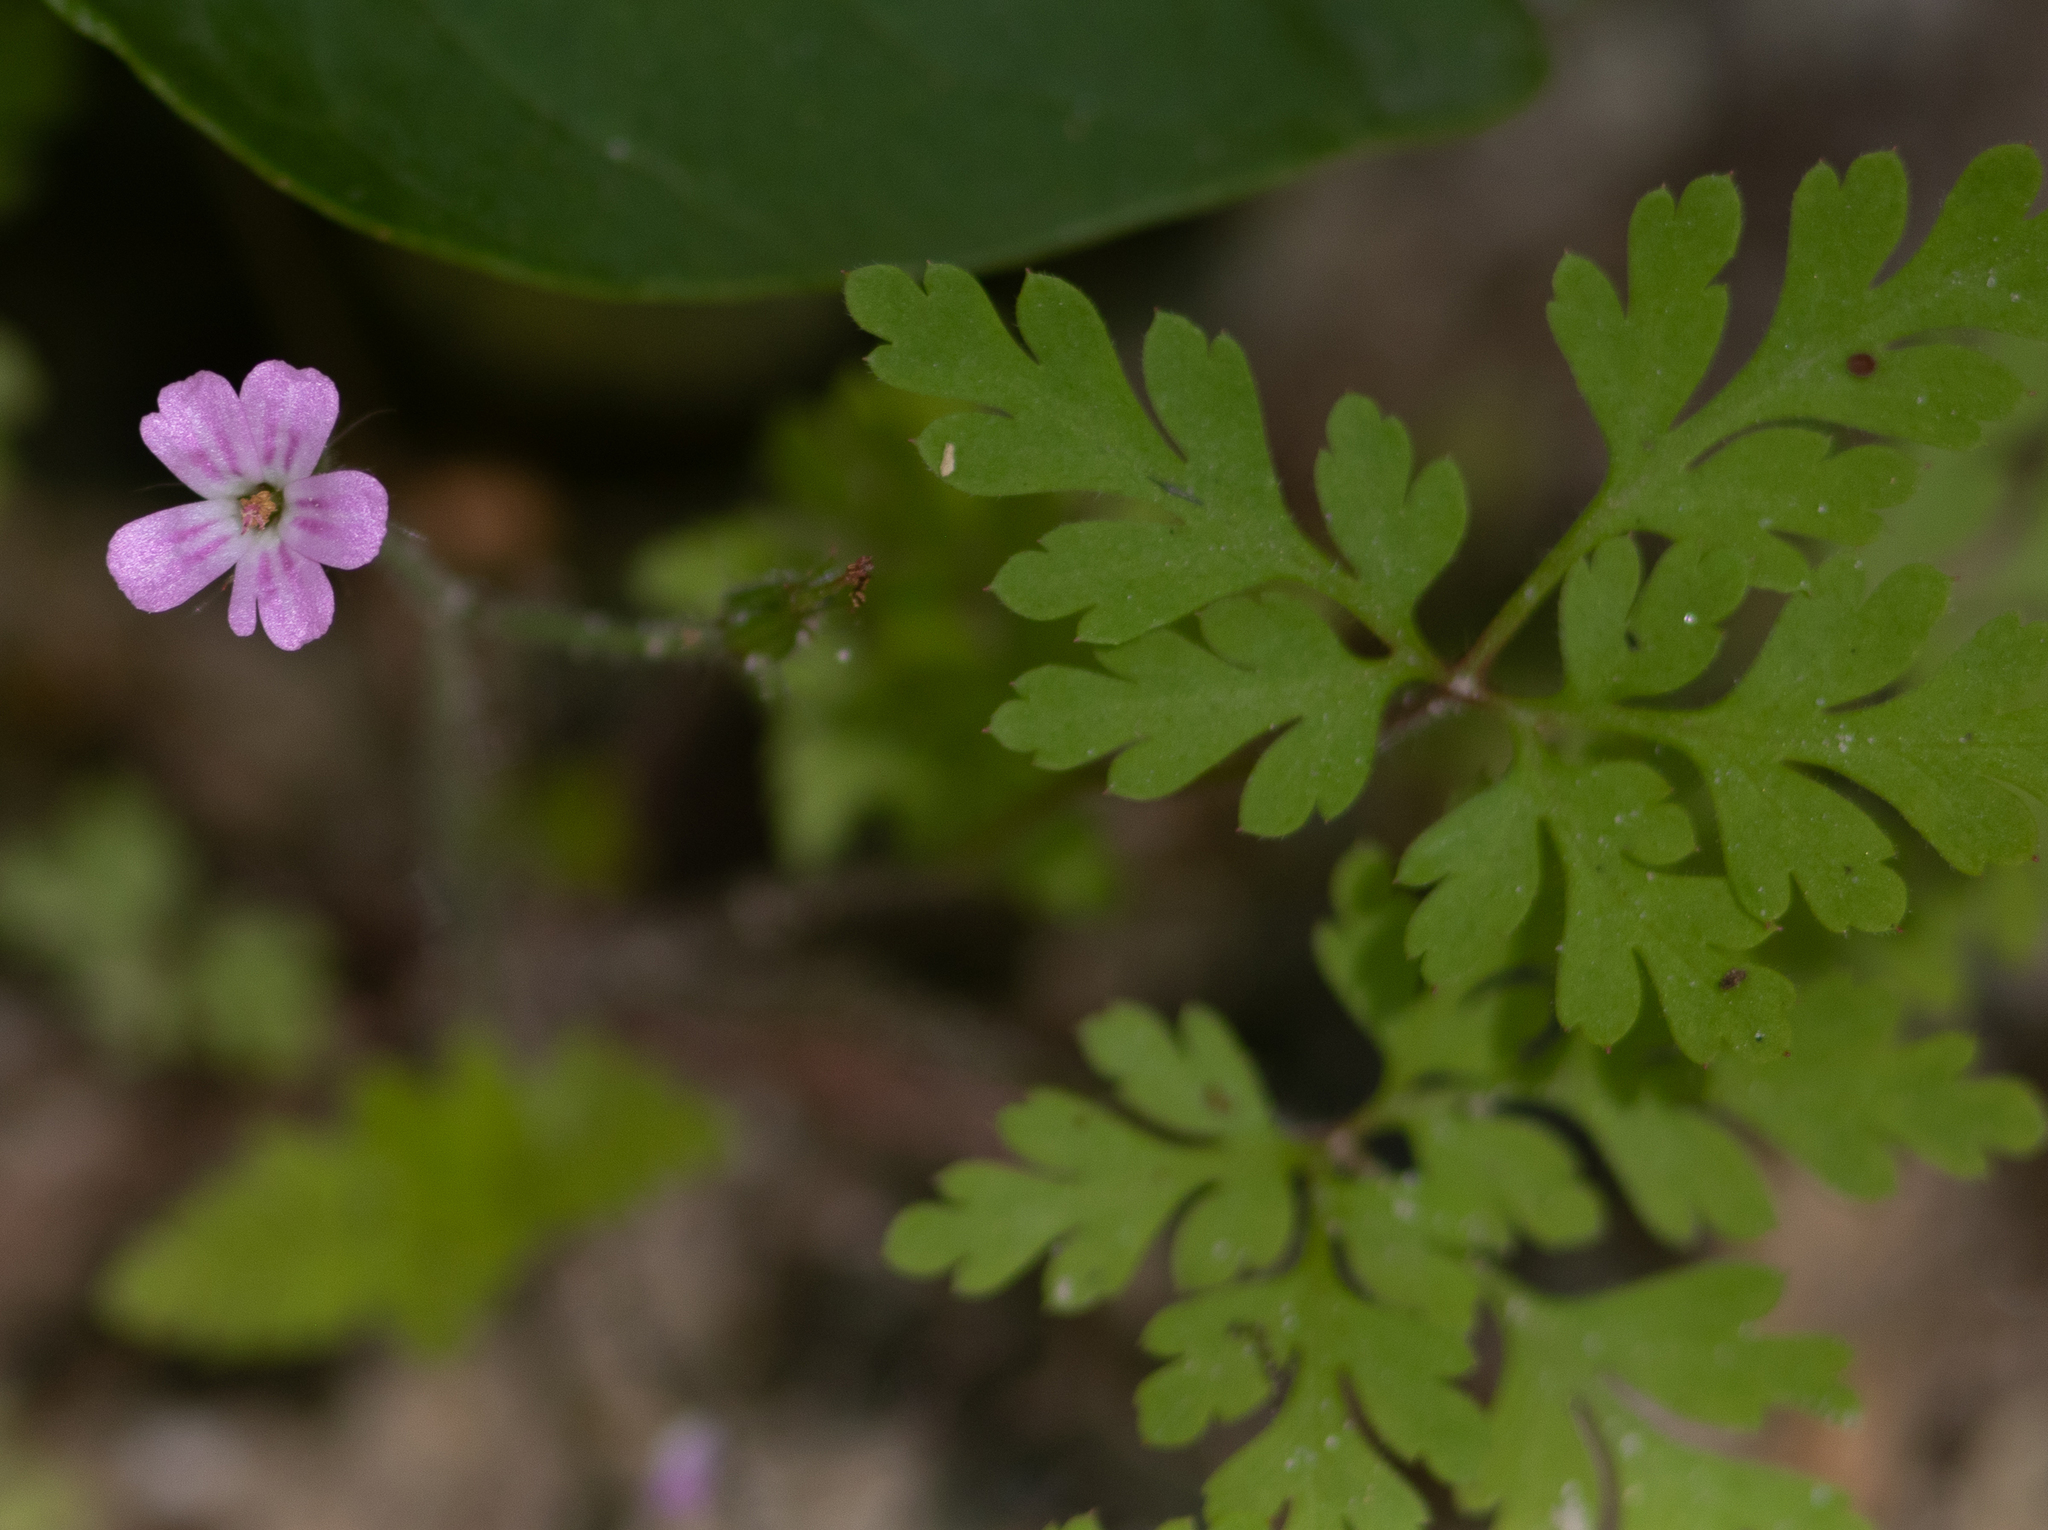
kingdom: Plantae
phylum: Tracheophyta
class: Magnoliopsida
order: Geraniales
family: Geraniaceae
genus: Geranium
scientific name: Geranium robertianum
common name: Herb-robert
